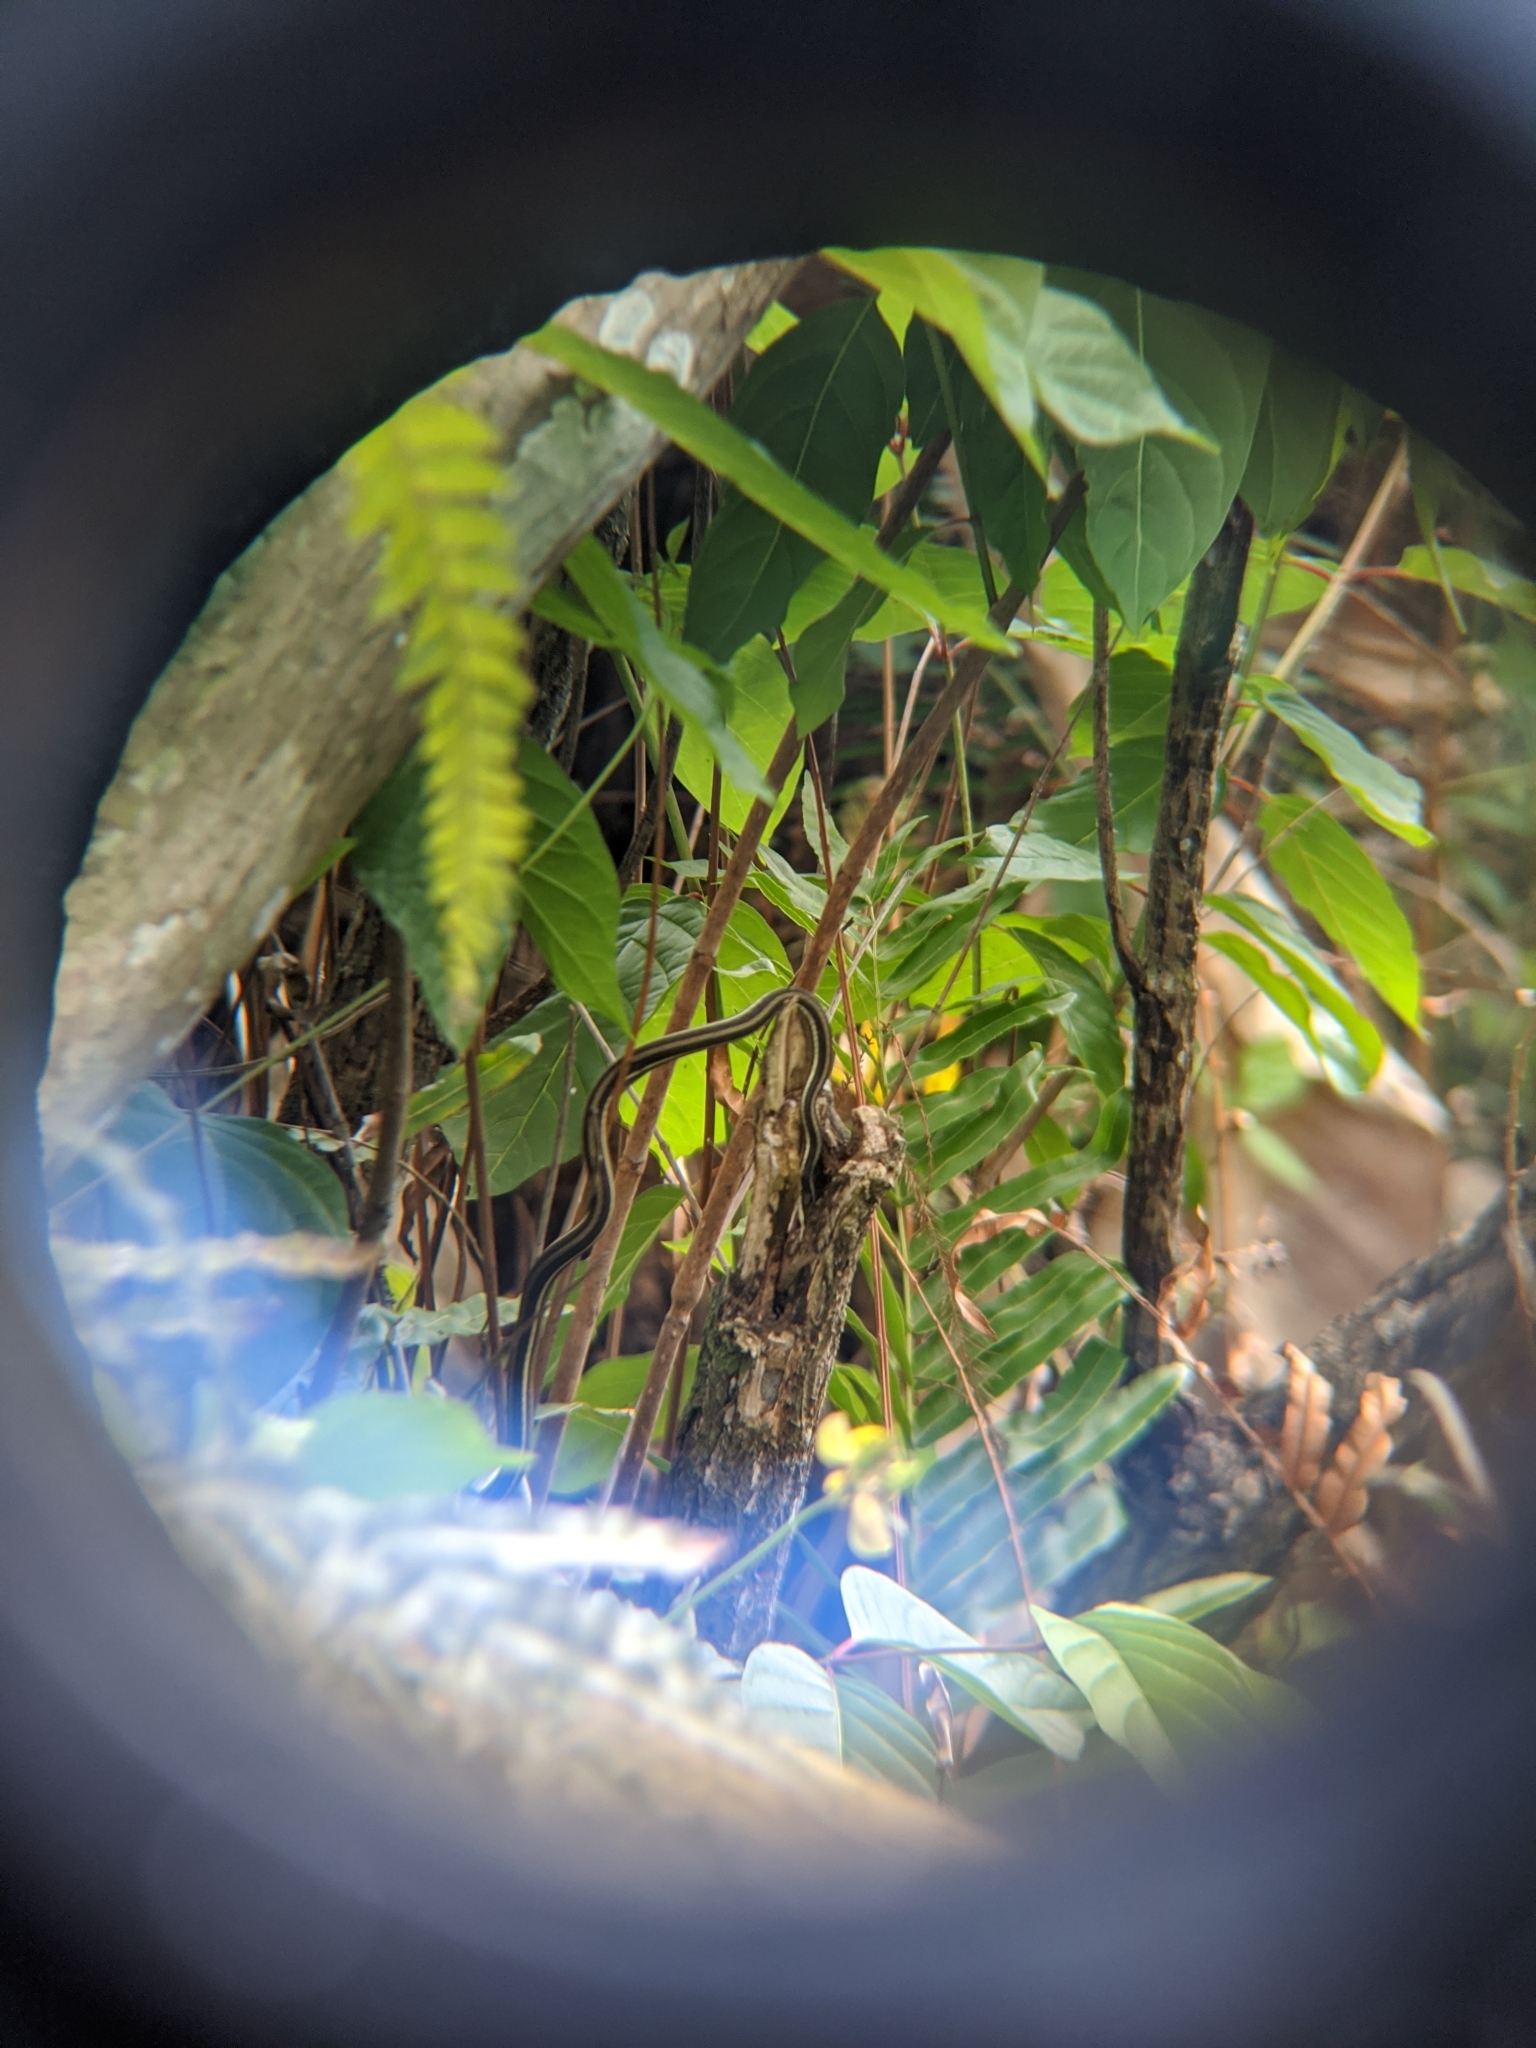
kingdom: Animalia
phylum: Chordata
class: Squamata
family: Colubridae
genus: Thamnophis
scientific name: Thamnophis saurita
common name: Eastern ribbonsnake
